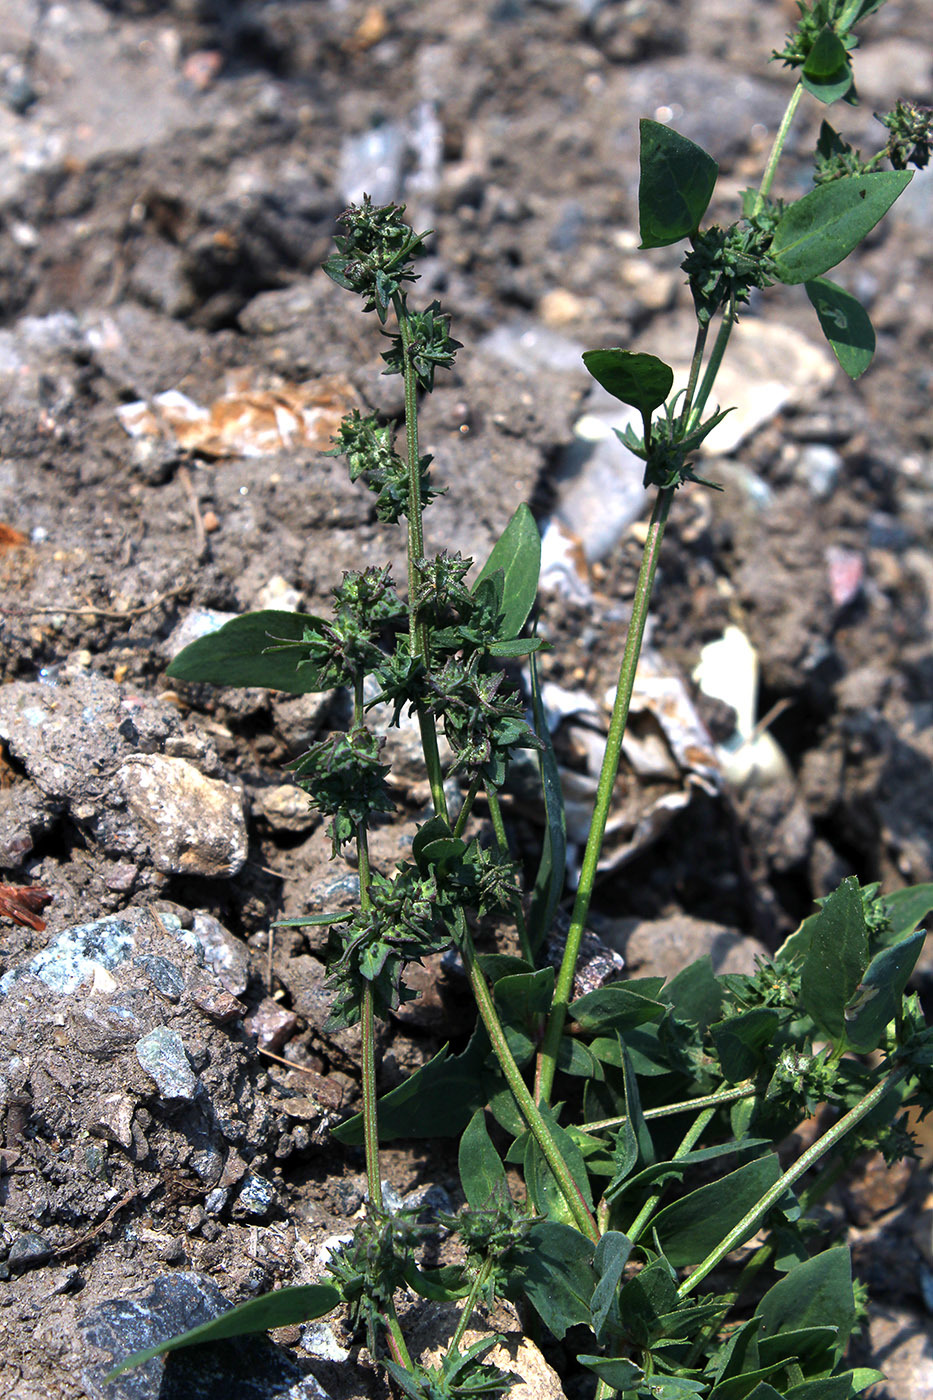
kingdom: Plantae
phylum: Tracheophyta
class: Magnoliopsida
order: Caryophyllales
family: Amaranthaceae
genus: Atriplex
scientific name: Atriplex prostrata
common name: Spear-leaved orache
